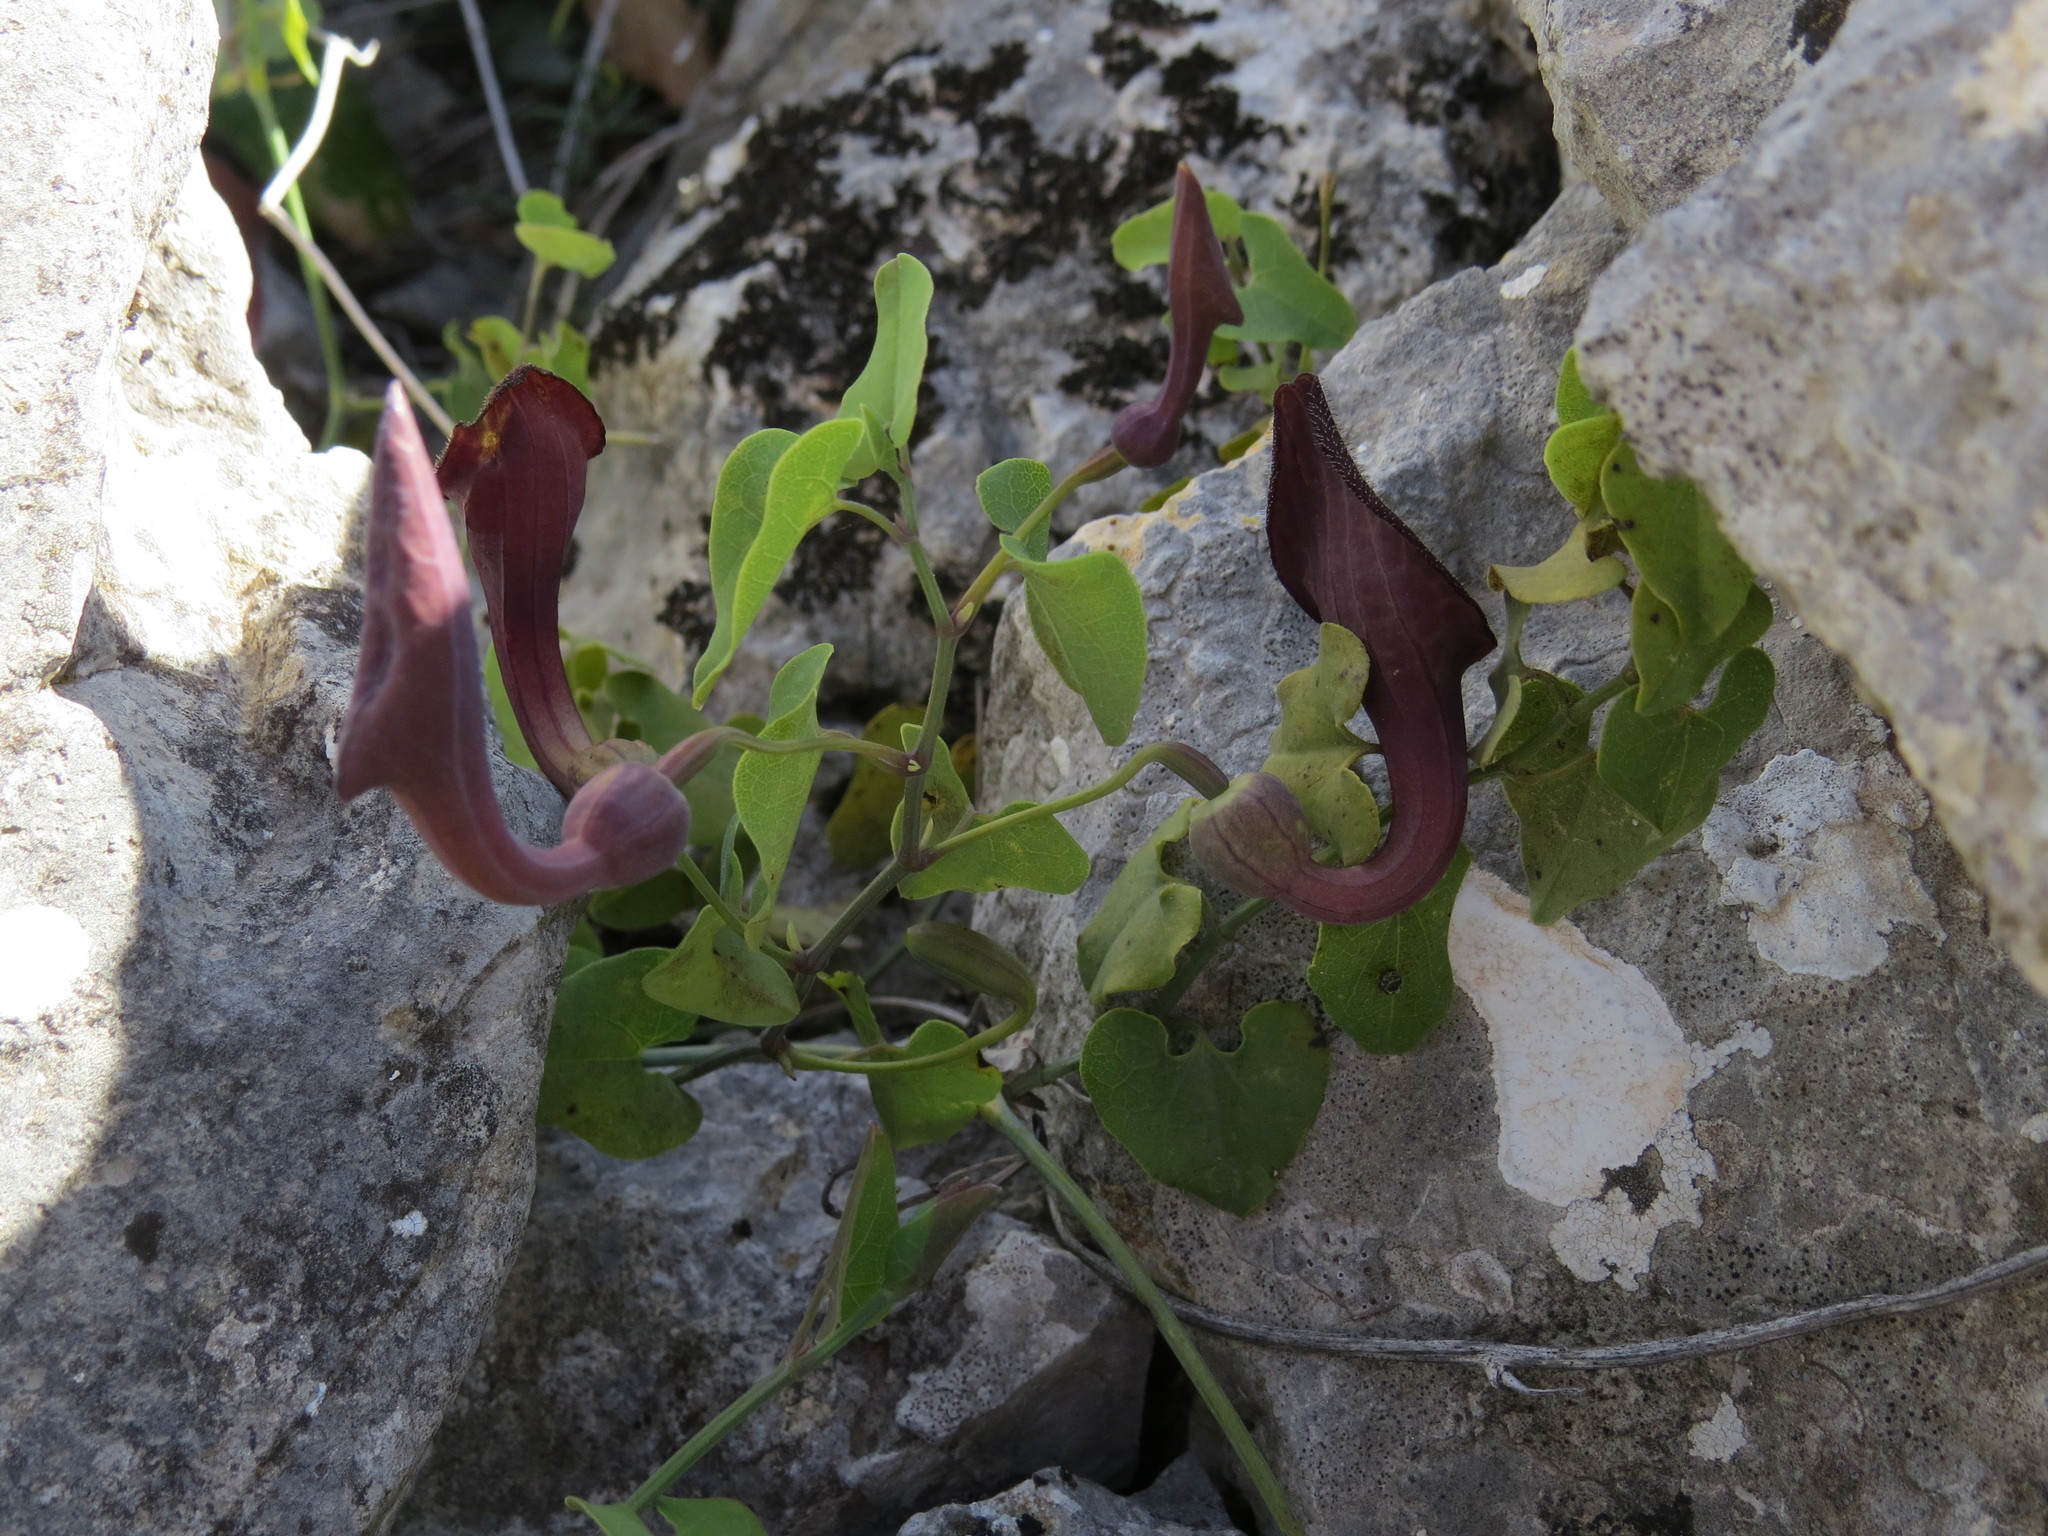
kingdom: Plantae
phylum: Tracheophyta
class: Magnoliopsida
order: Piperales
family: Aristolochiaceae
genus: Aristolochia
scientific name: Aristolochia baetica
